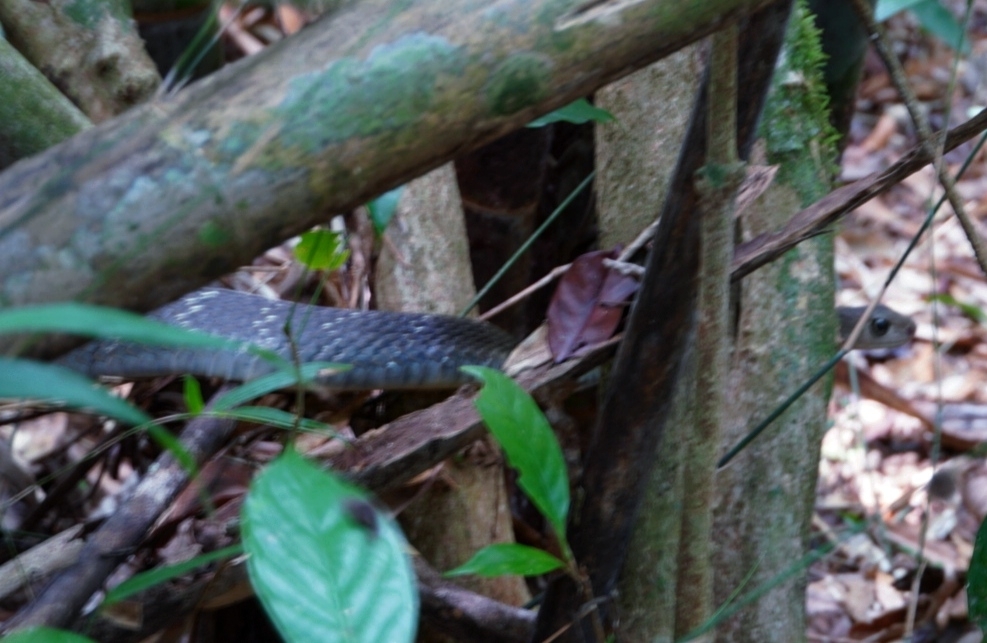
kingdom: Animalia
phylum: Chordata
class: Squamata
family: Colubridae
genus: Ptyas
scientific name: Ptyas carinata
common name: Keeled rat snake
